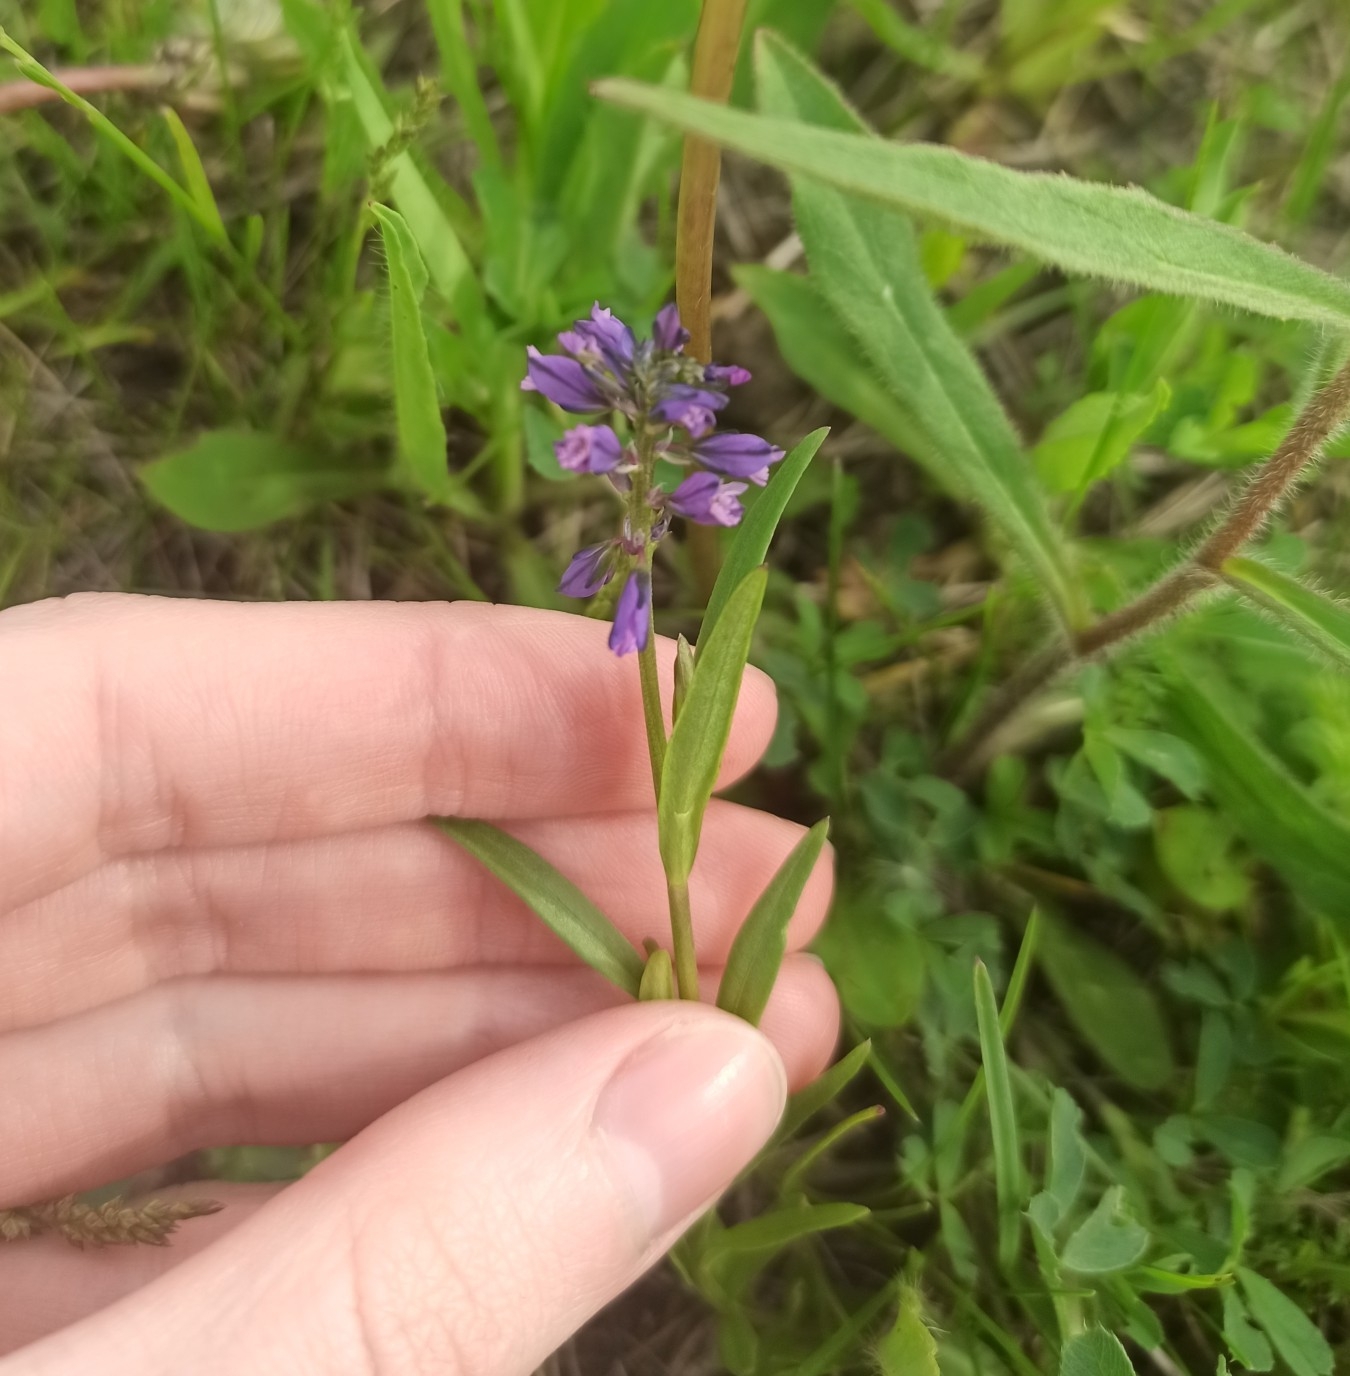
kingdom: Plantae
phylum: Tracheophyta
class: Magnoliopsida
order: Fabales
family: Polygalaceae
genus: Polygala
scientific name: Polygala comosa
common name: Tufted milkwort
